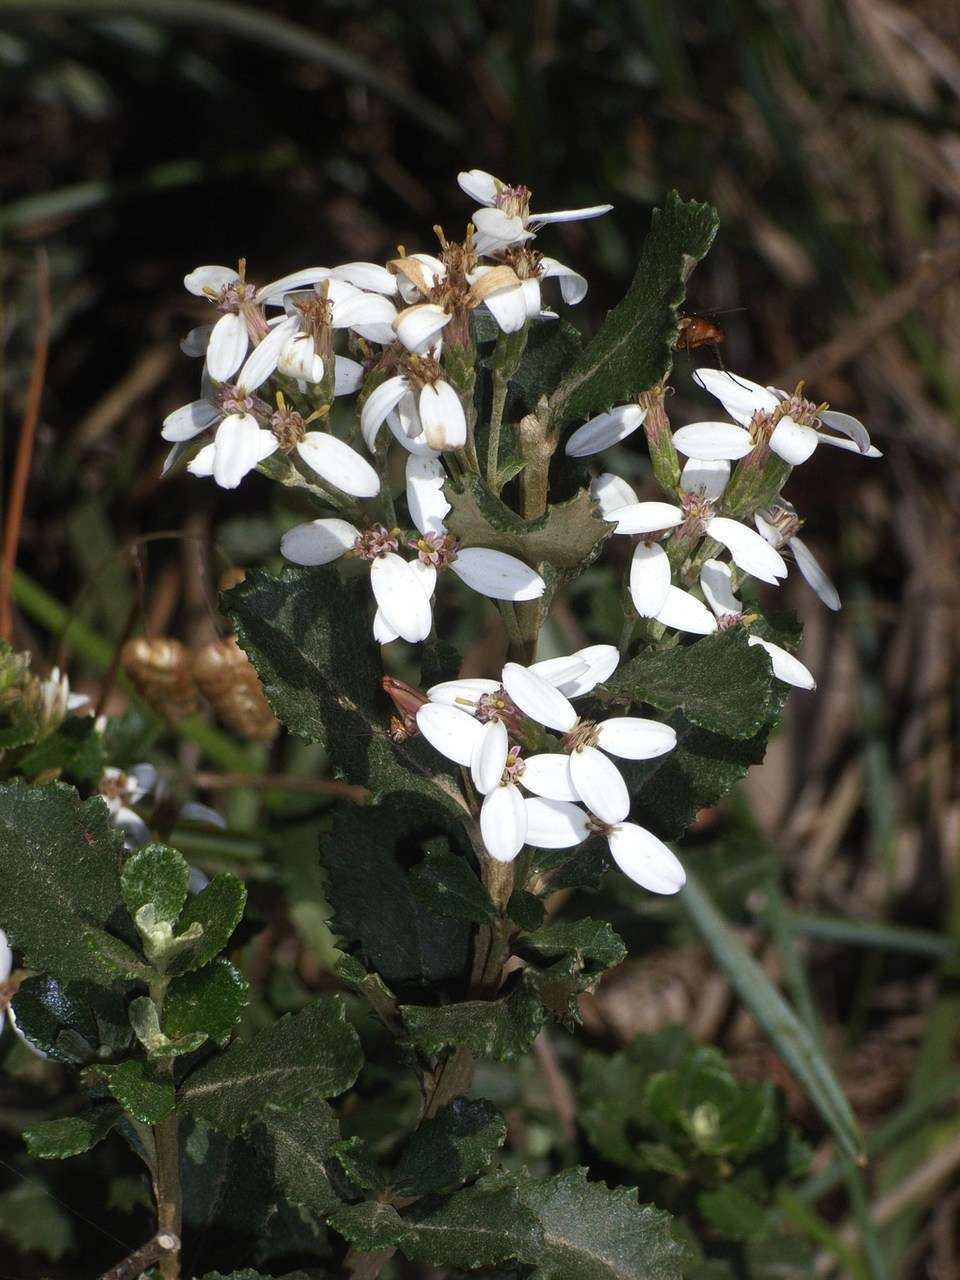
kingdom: Plantae
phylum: Tracheophyta
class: Magnoliopsida
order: Asterales
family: Asteraceae
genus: Olearia
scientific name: Olearia myrsinoides
